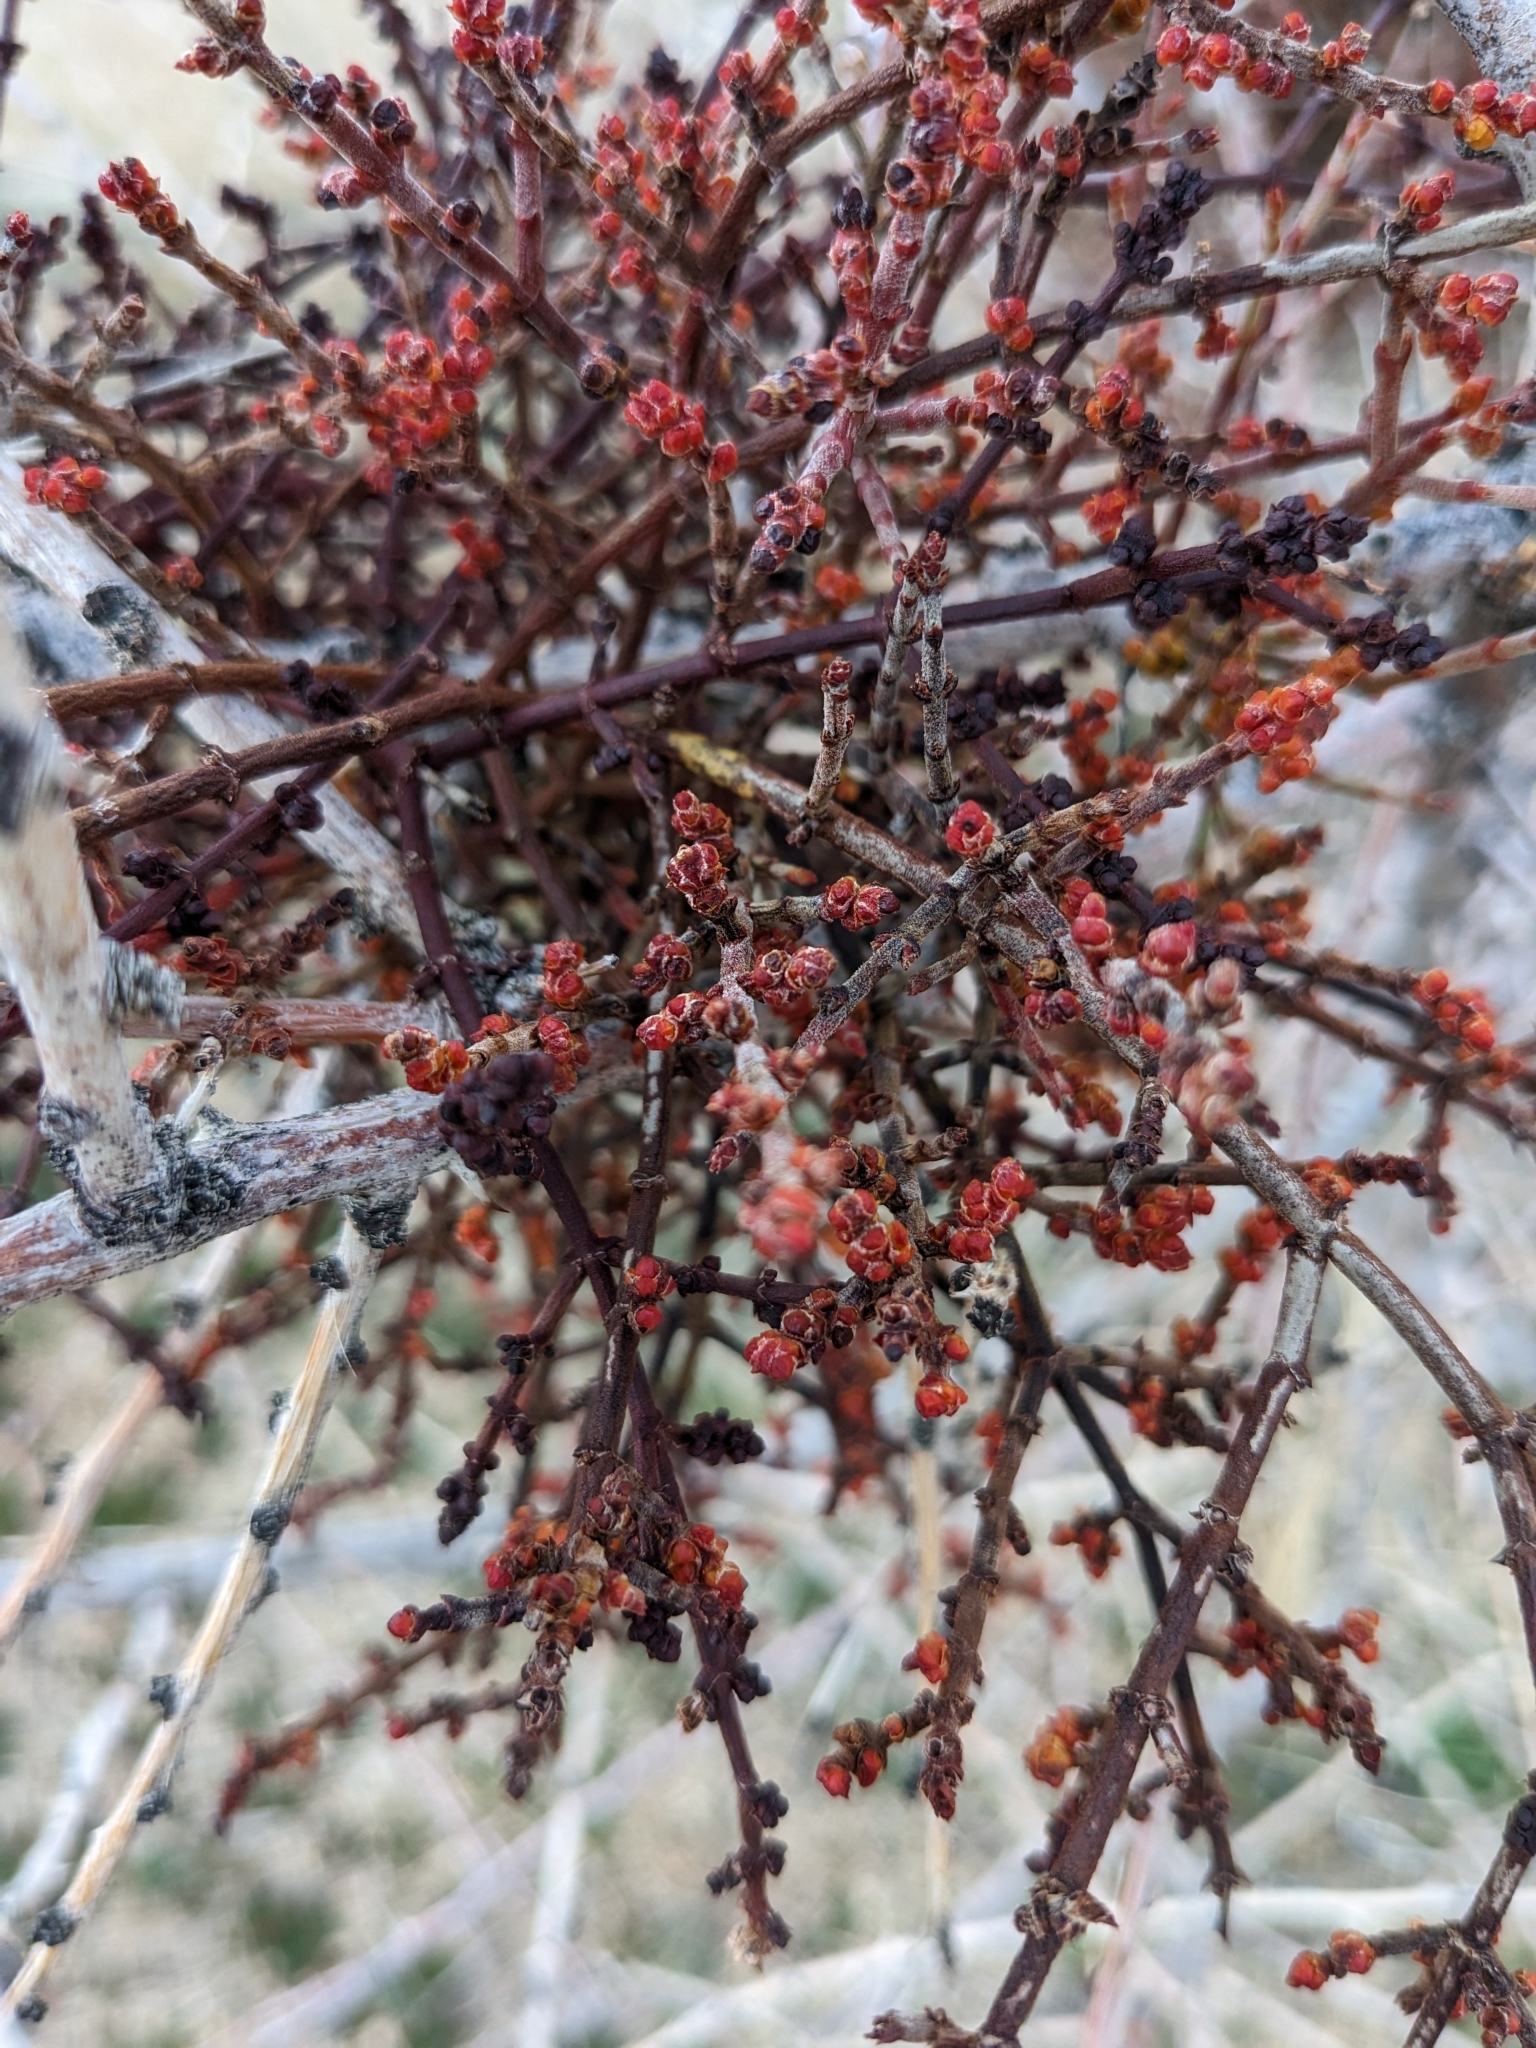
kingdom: Plantae
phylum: Tracheophyta
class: Magnoliopsida
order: Santalales
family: Viscaceae
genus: Phoradendron
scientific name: Phoradendron californicum
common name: Acacia mistletoe
